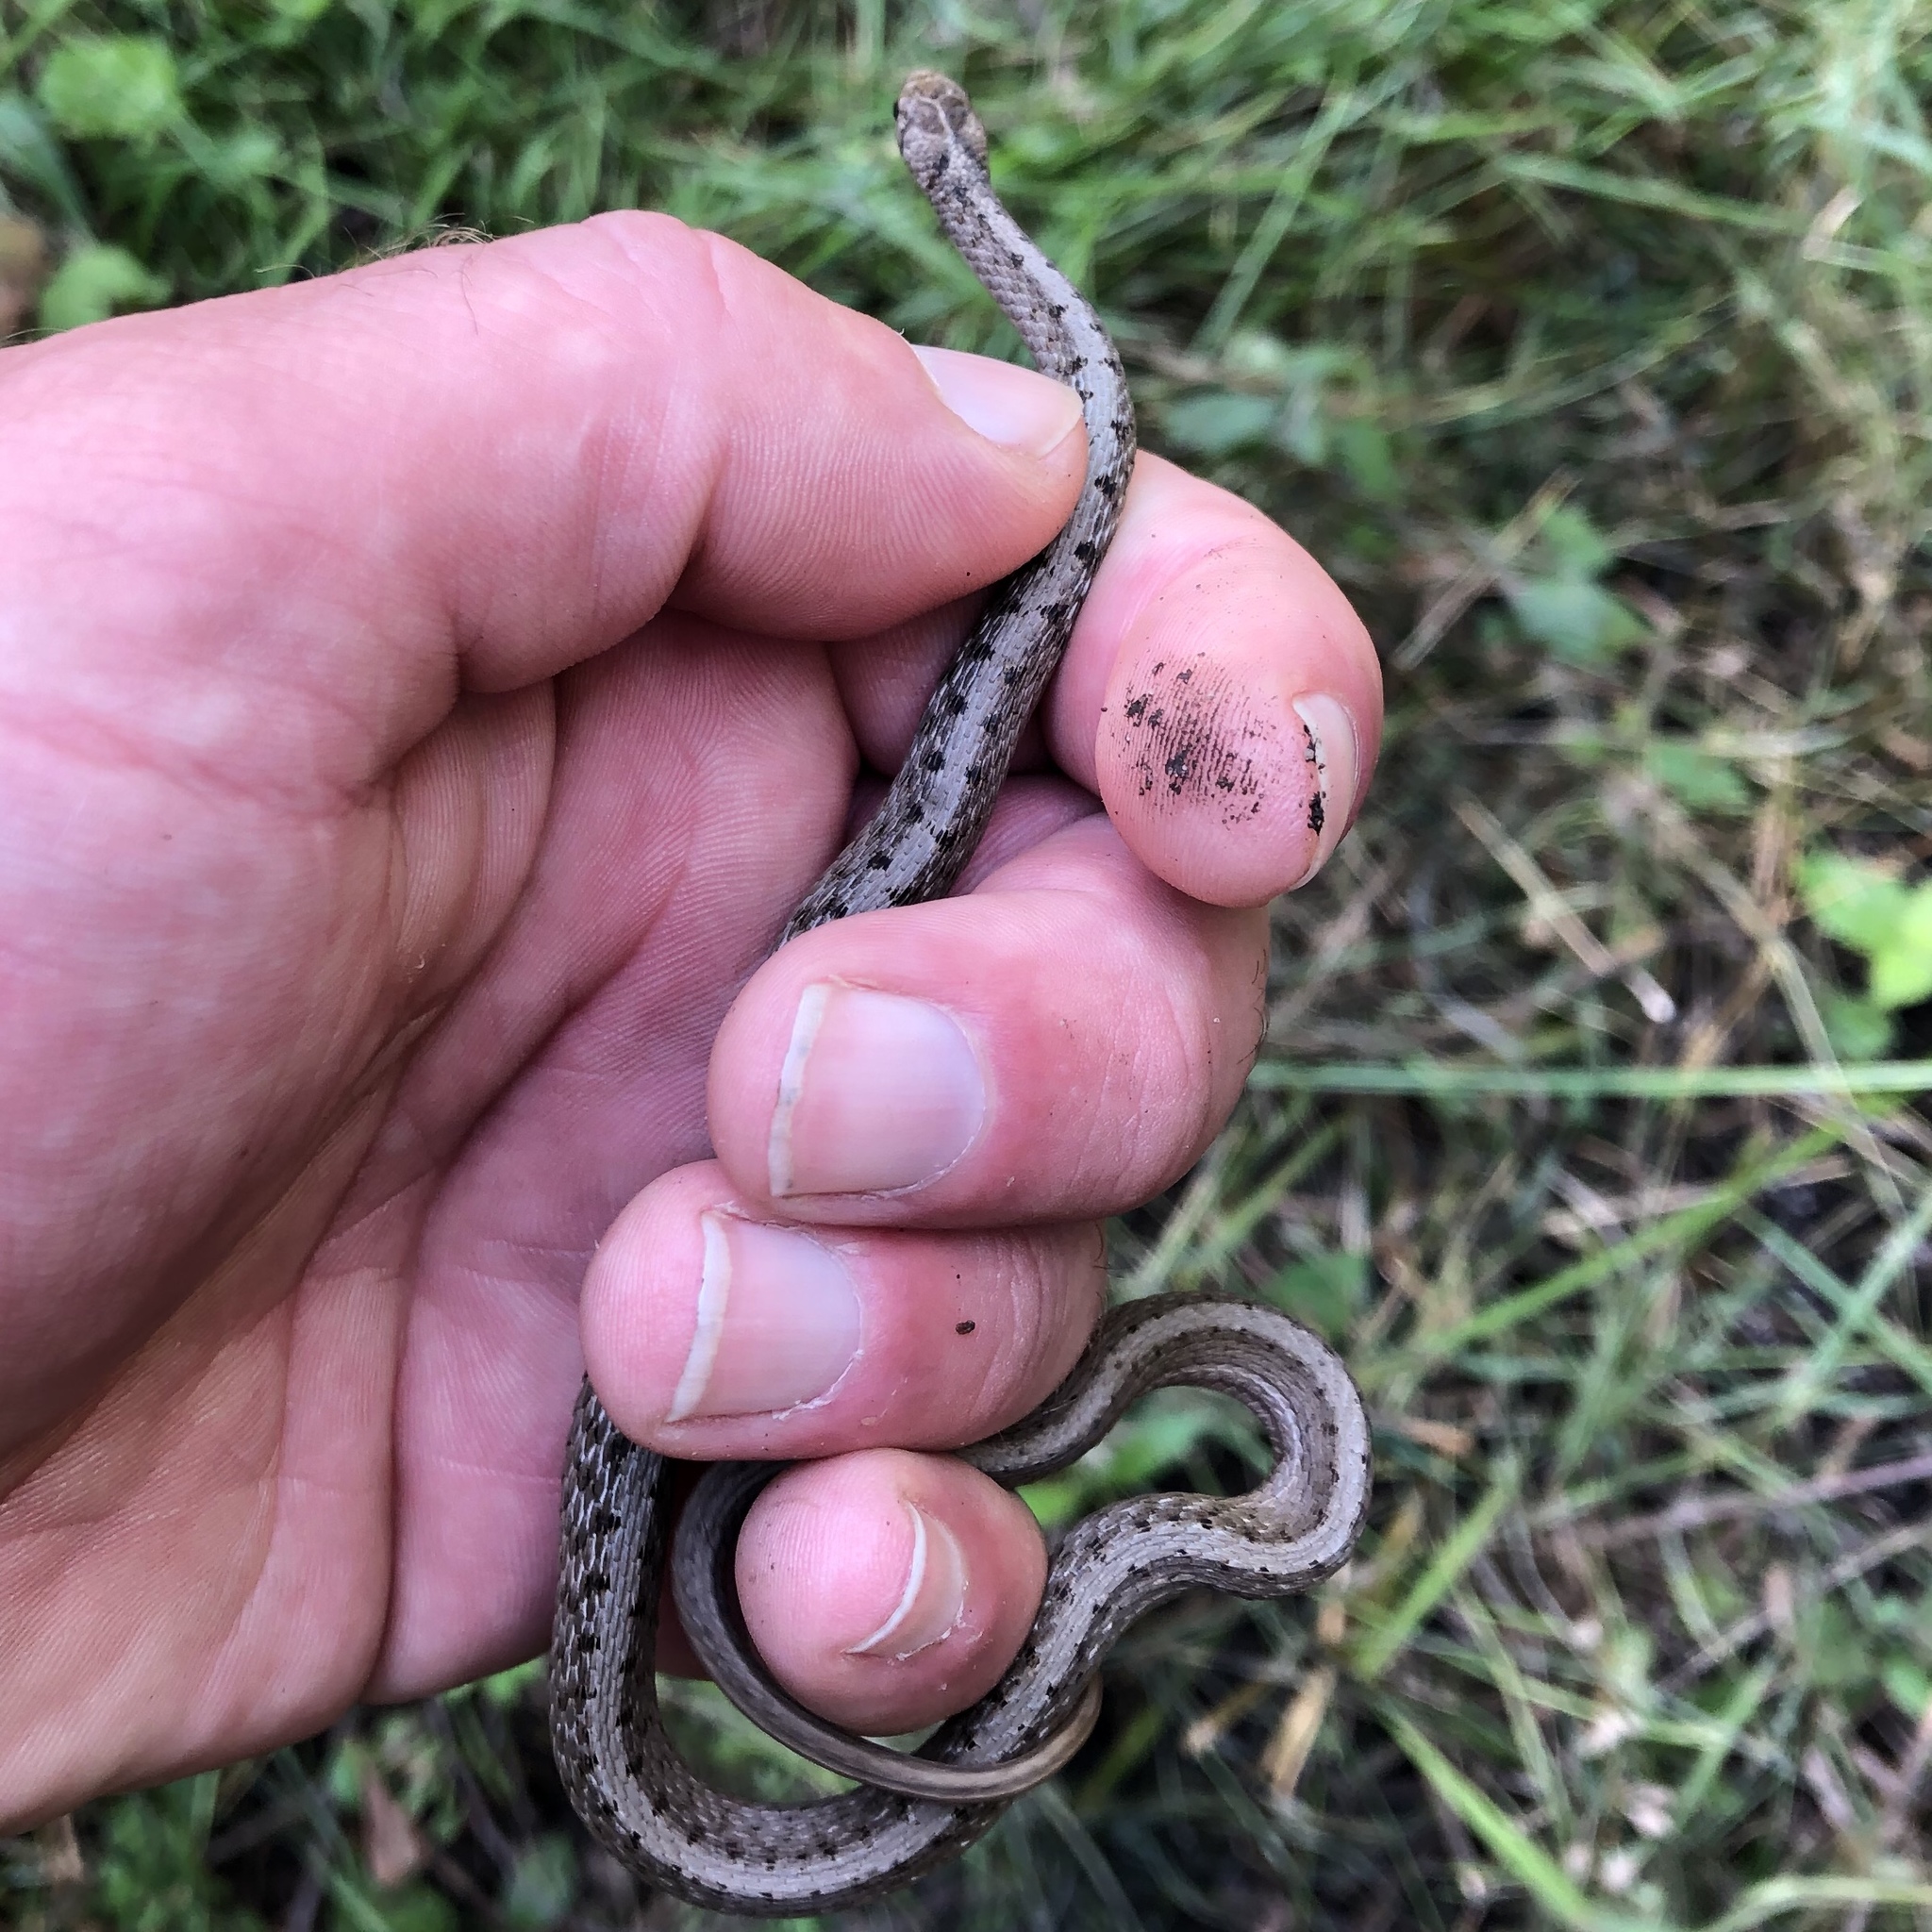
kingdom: Animalia
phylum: Chordata
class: Squamata
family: Colubridae
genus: Storeria
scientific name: Storeria dekayi
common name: (dekay’s) brown snake
